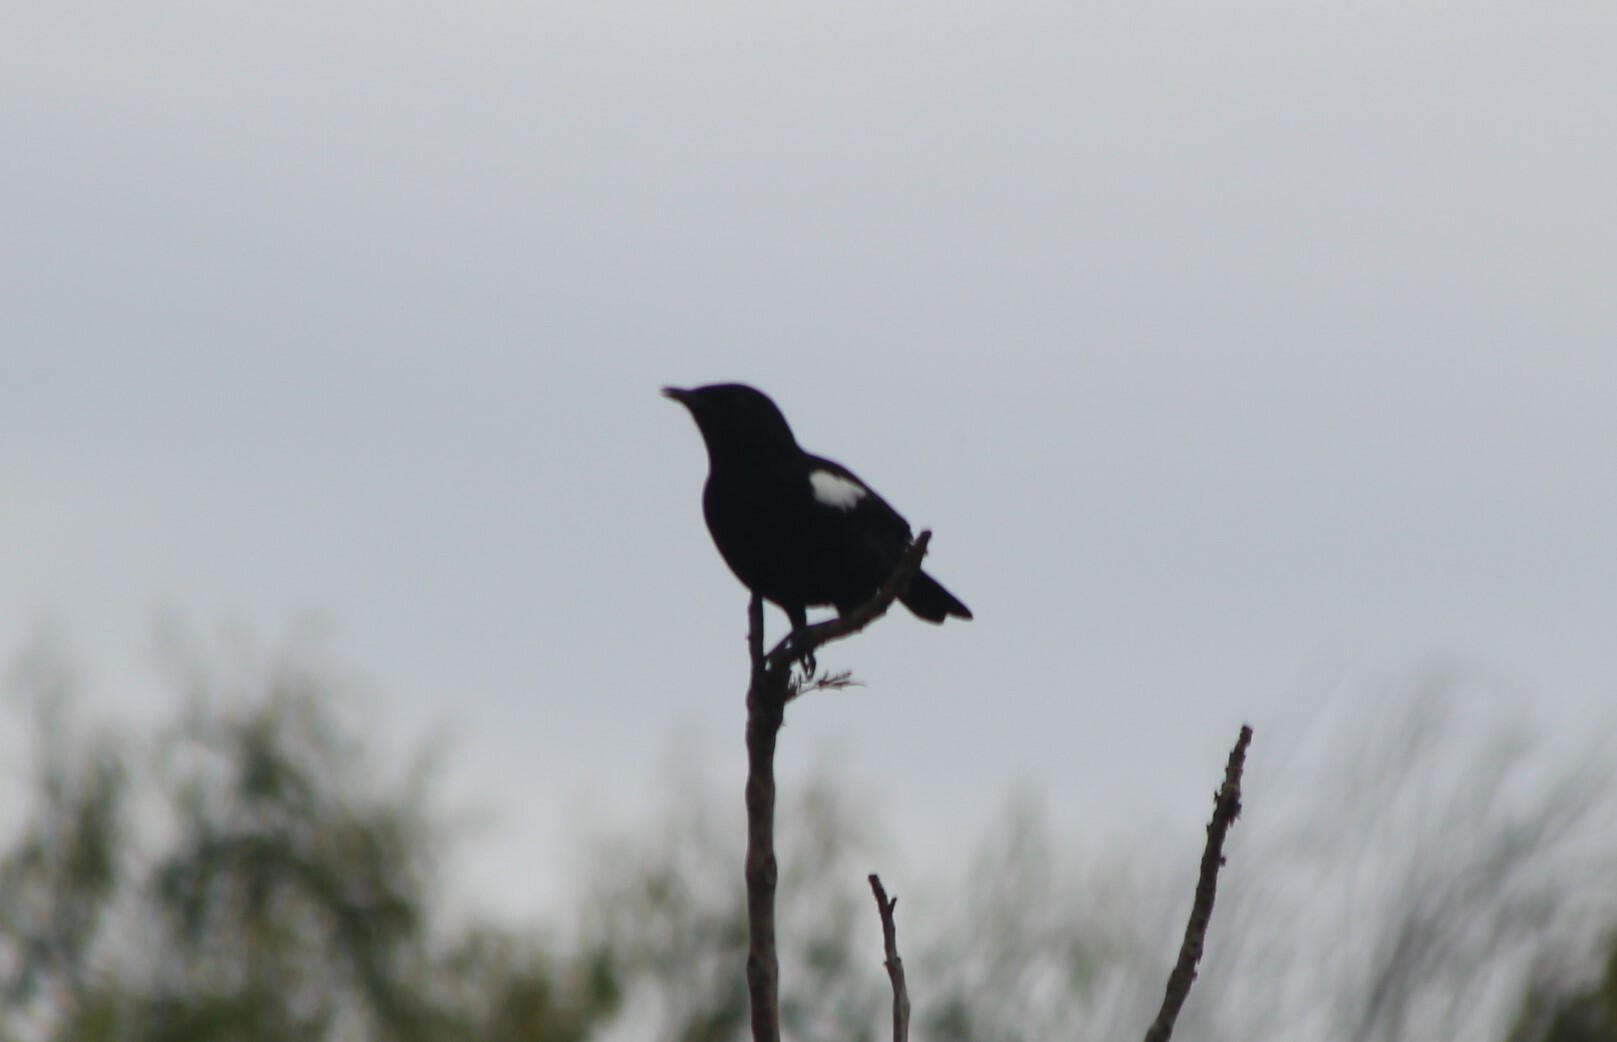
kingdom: Animalia
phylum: Chordata
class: Aves
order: Passeriformes
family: Muscicapidae
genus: Myrmecocichla
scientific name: Myrmecocichla nigra
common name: Sooty chat
